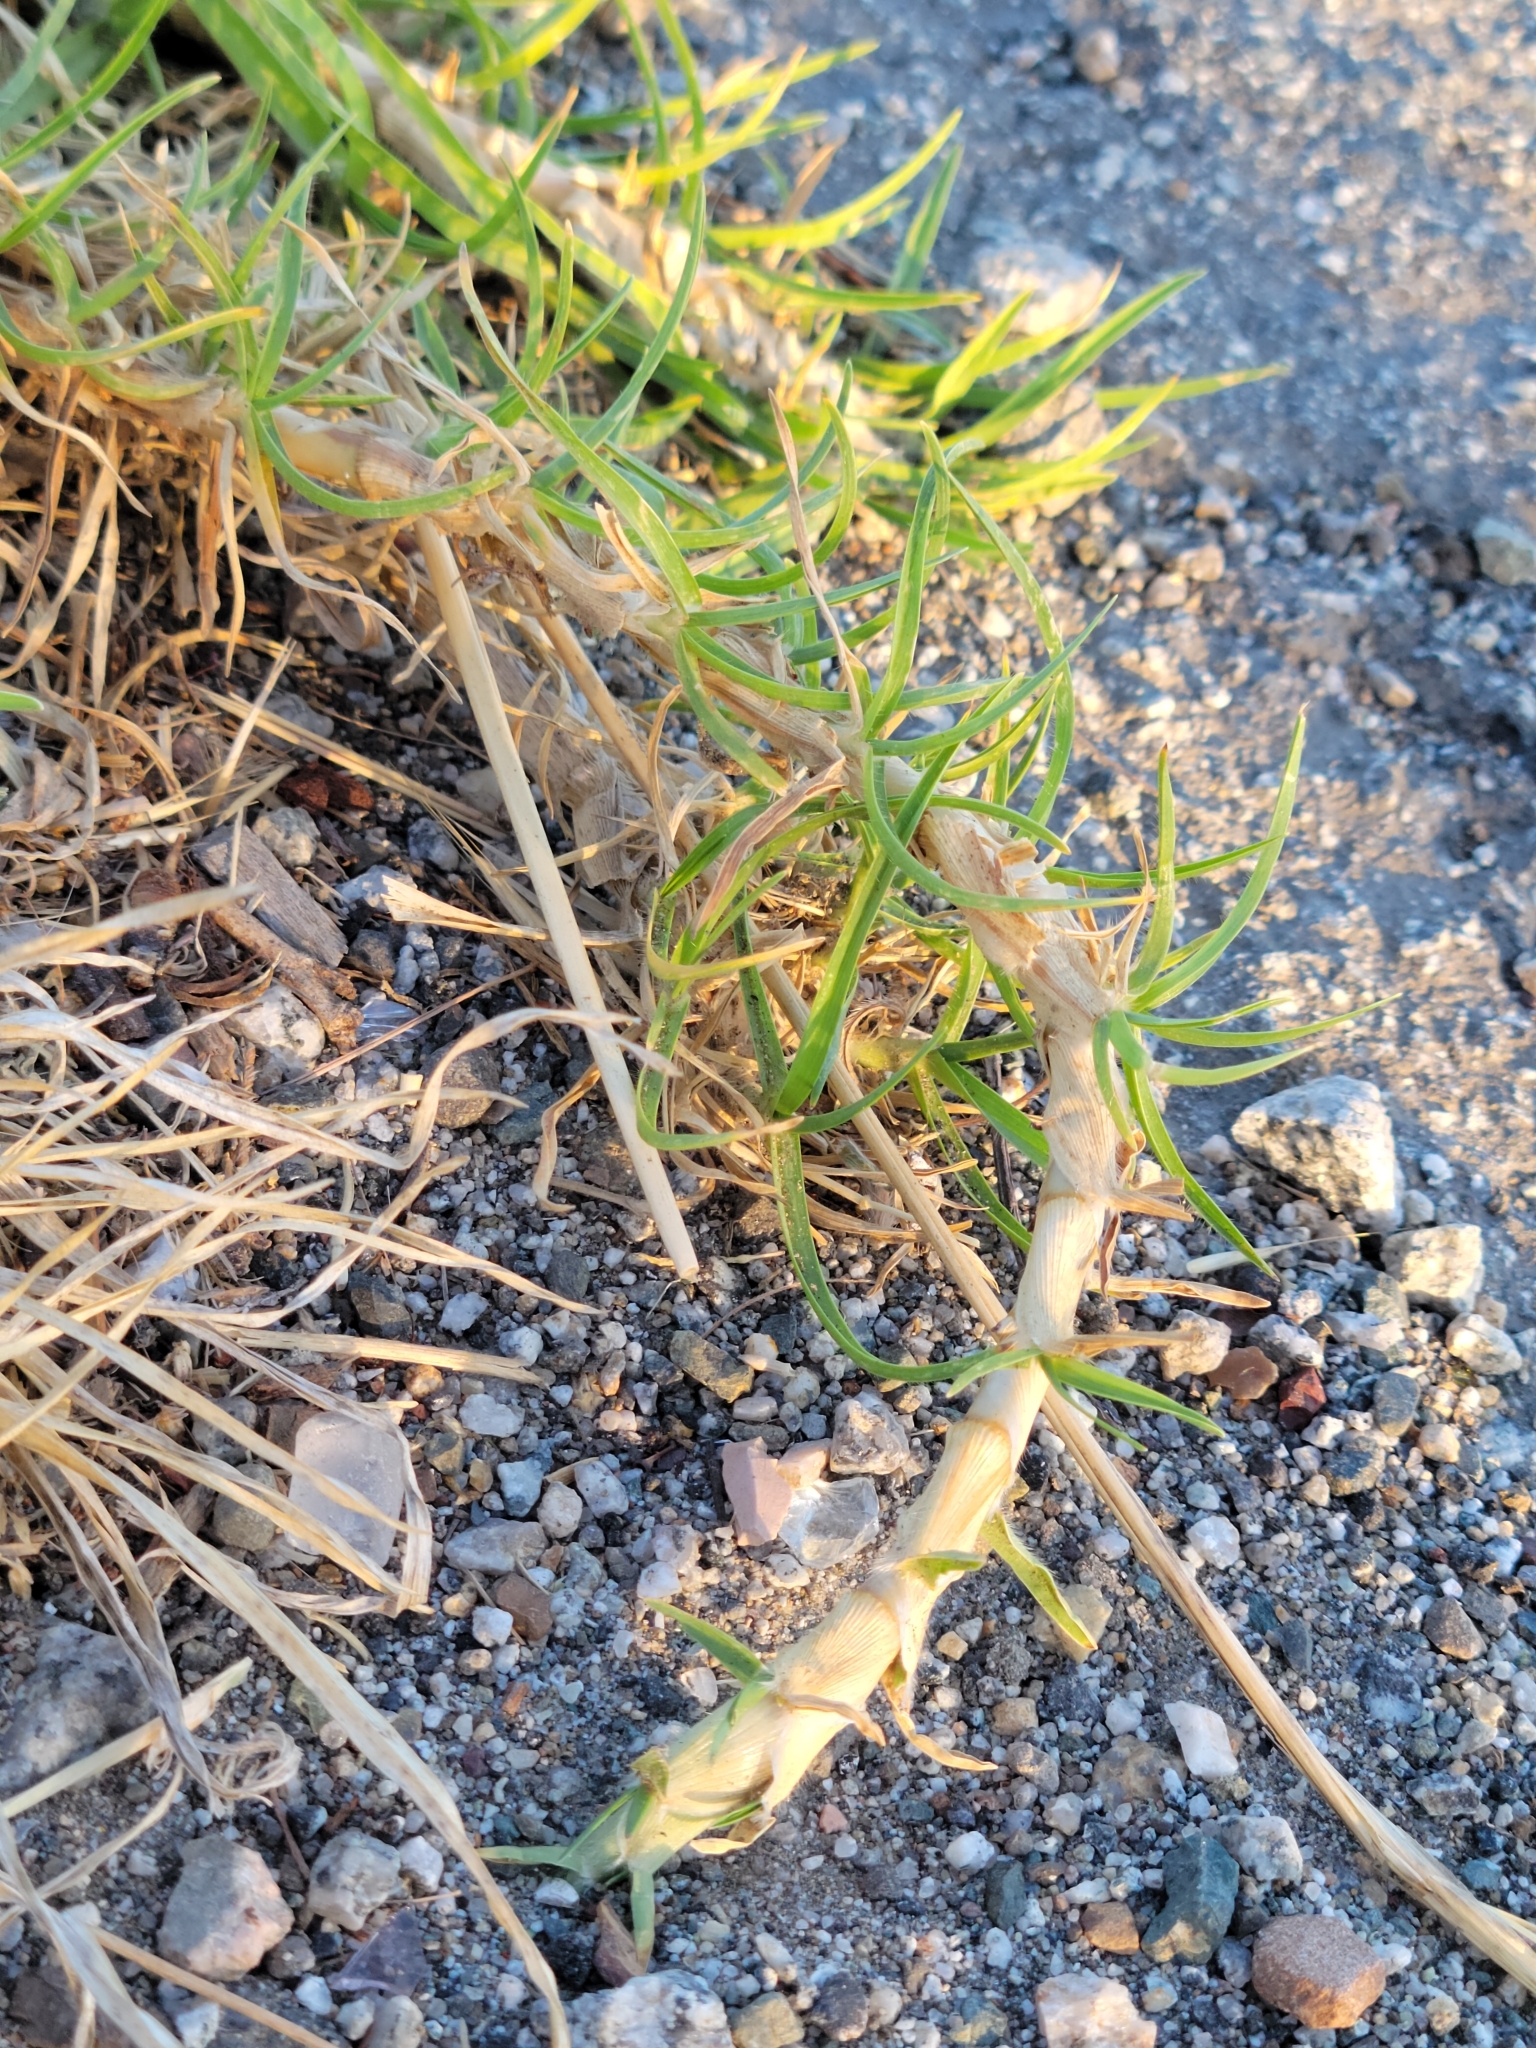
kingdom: Plantae
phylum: Tracheophyta
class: Liliopsida
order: Poales
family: Poaceae
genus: Cenchrus
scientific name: Cenchrus clandestinus
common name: Kikuyugrass
